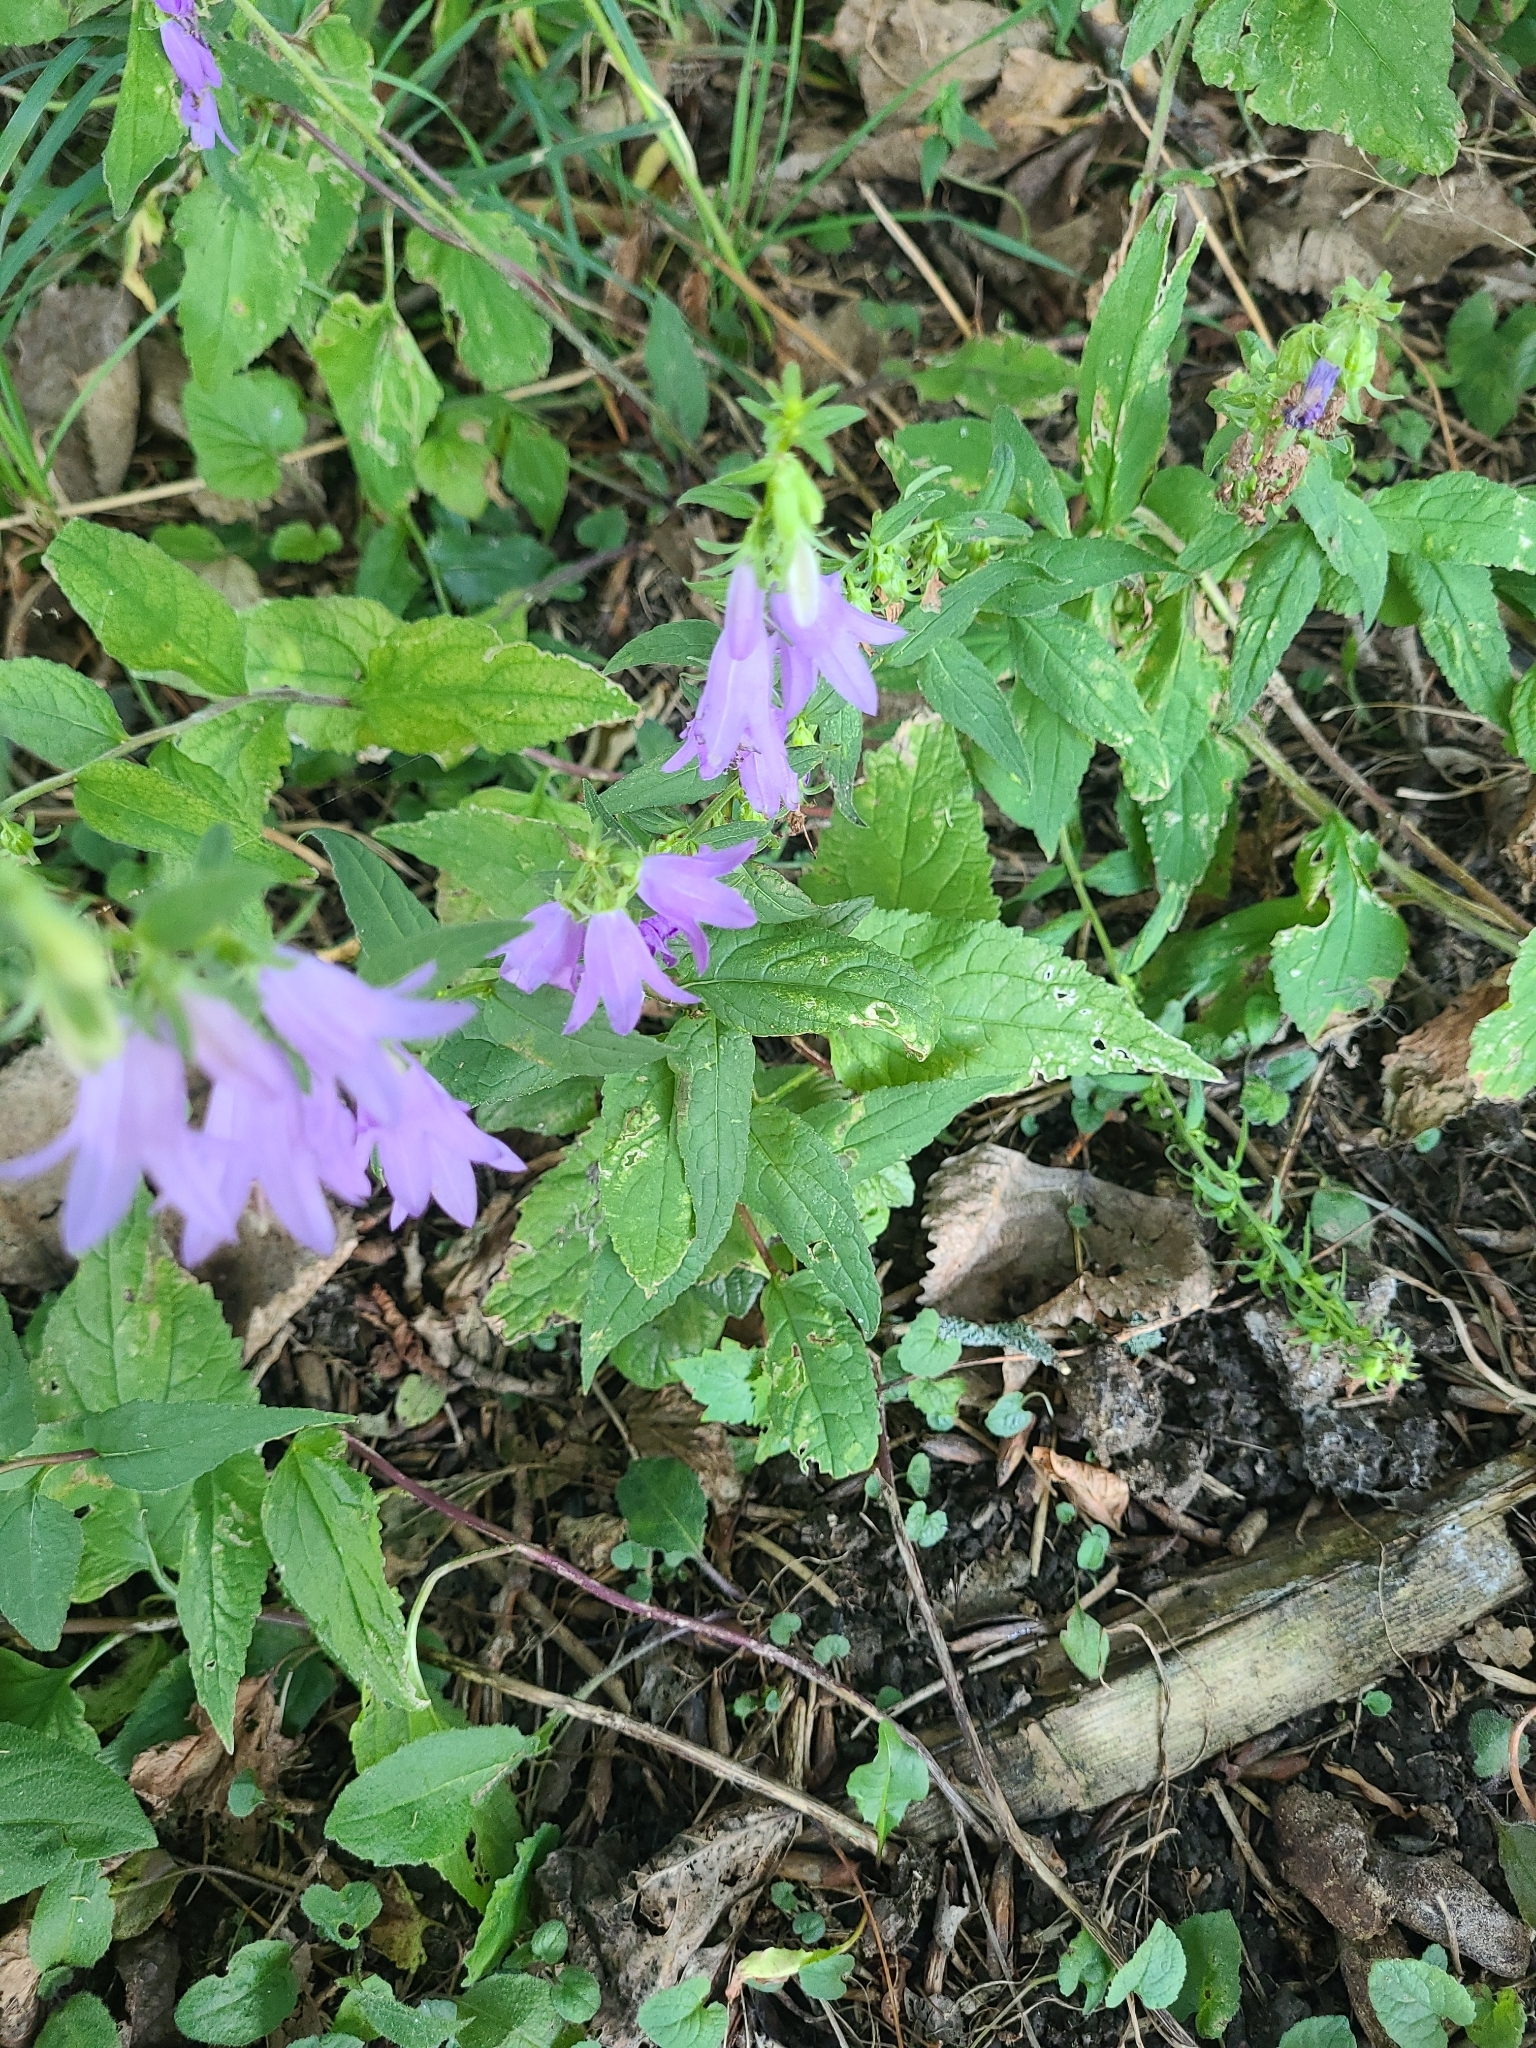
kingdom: Plantae
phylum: Tracheophyta
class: Magnoliopsida
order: Asterales
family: Campanulaceae
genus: Campanula
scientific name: Campanula rapunculoides
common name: Creeping bellflower
